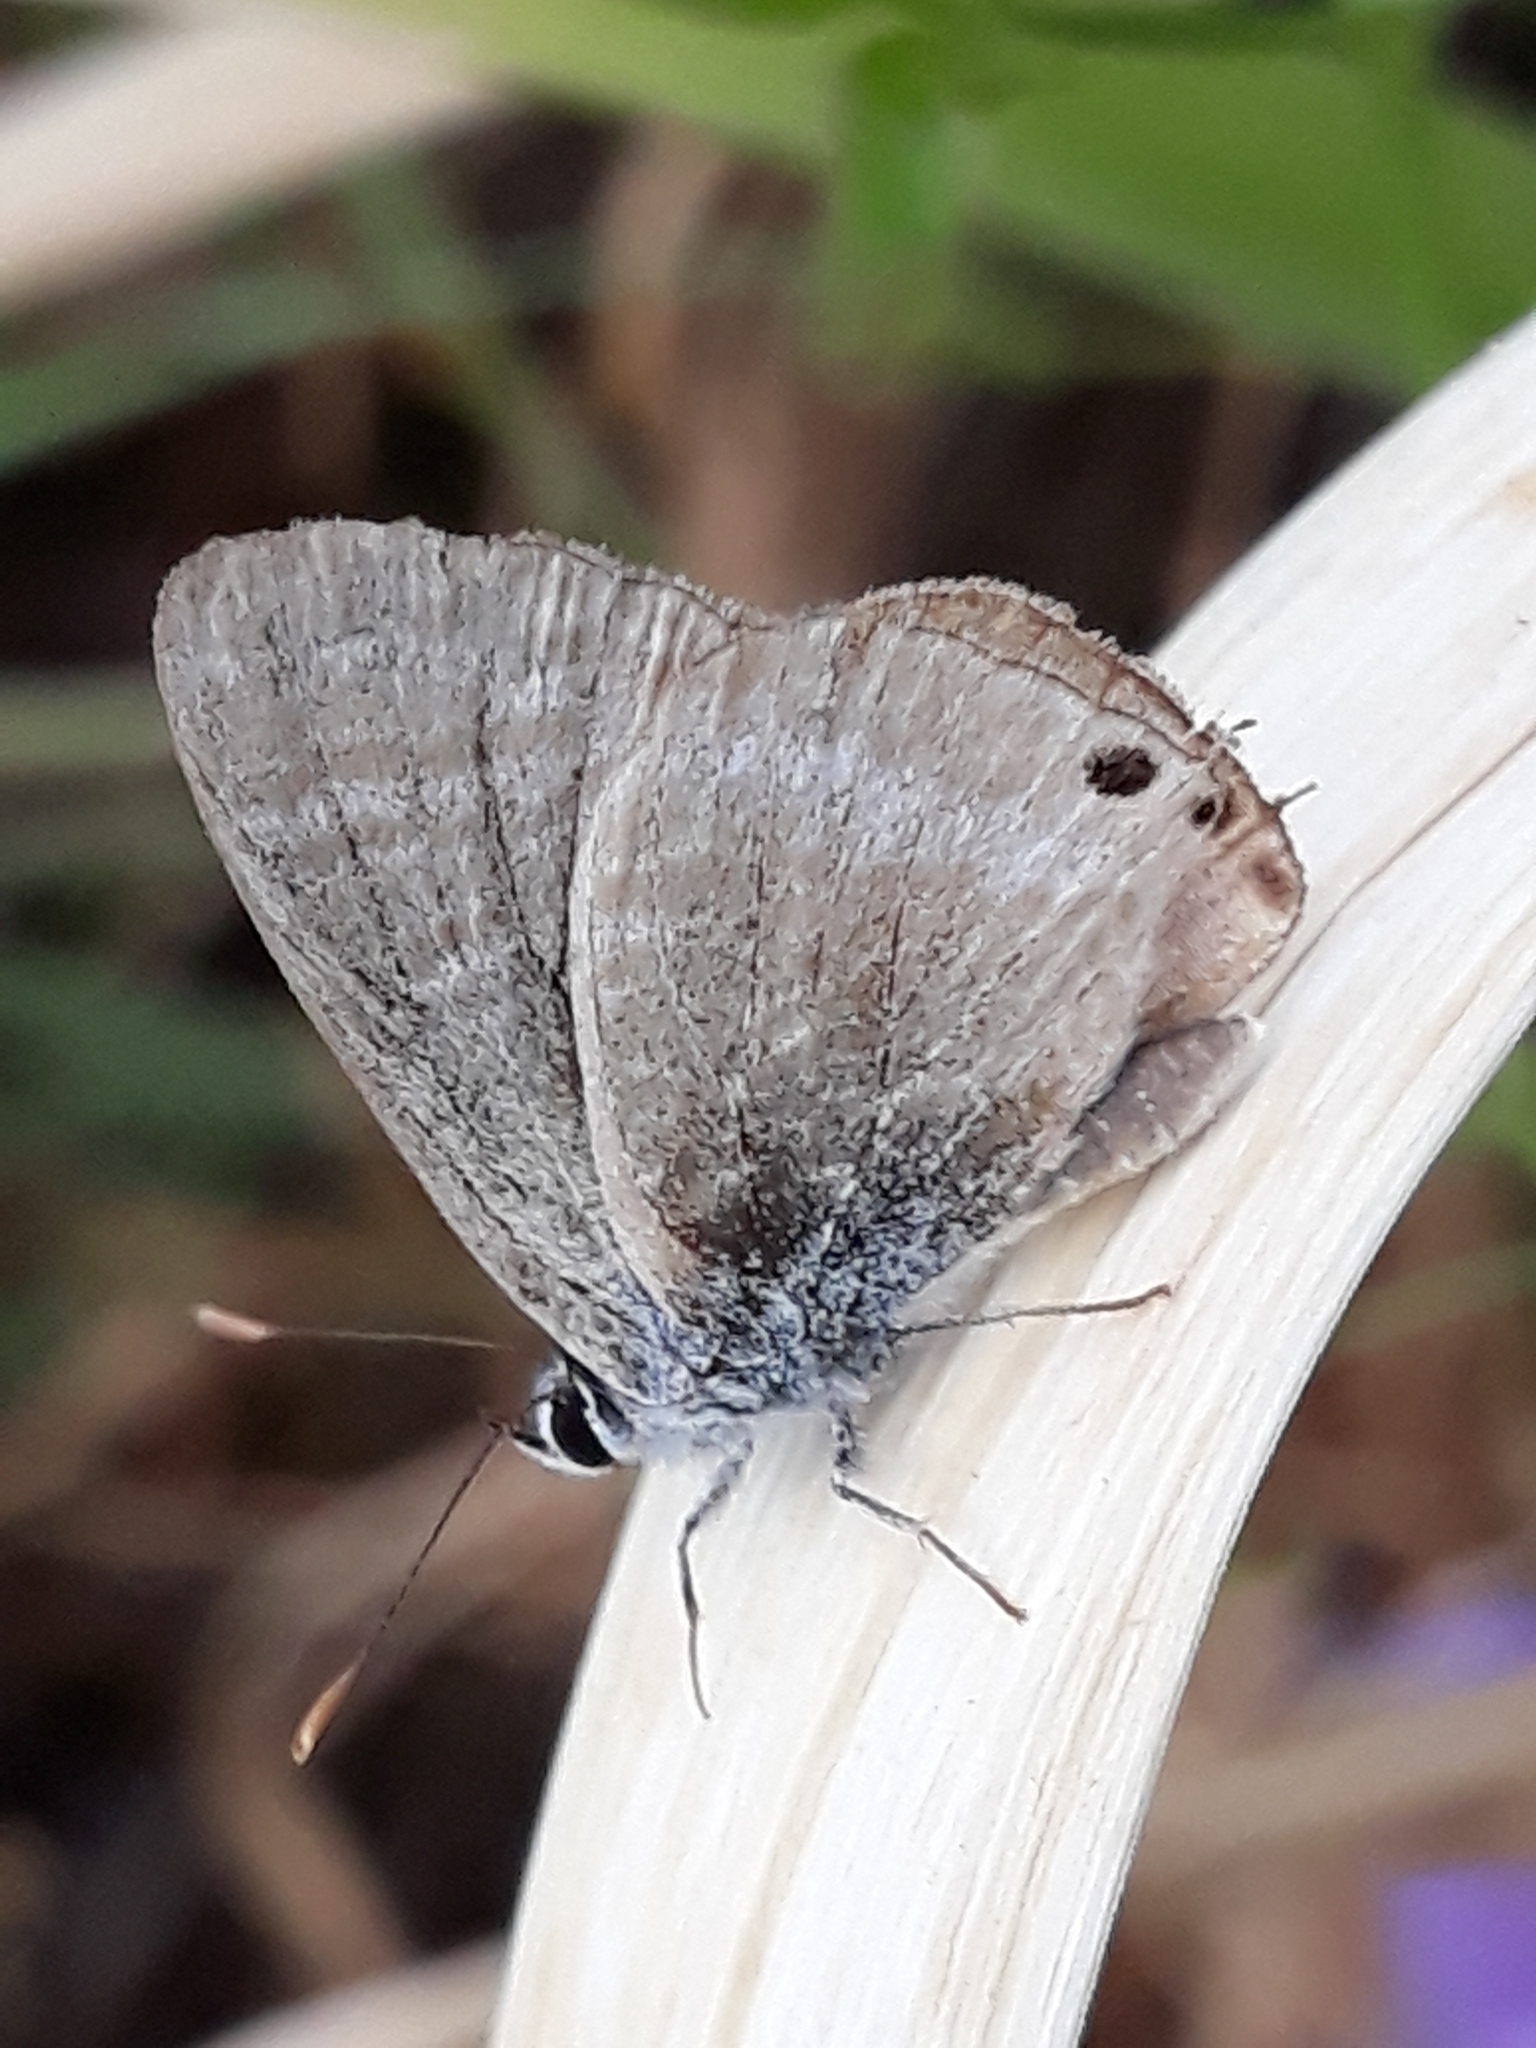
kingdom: Animalia
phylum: Arthropoda
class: Insecta
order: Lepidoptera
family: Lycaenidae
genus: Lampides
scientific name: Lampides boeticus
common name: Long-tailed blue
